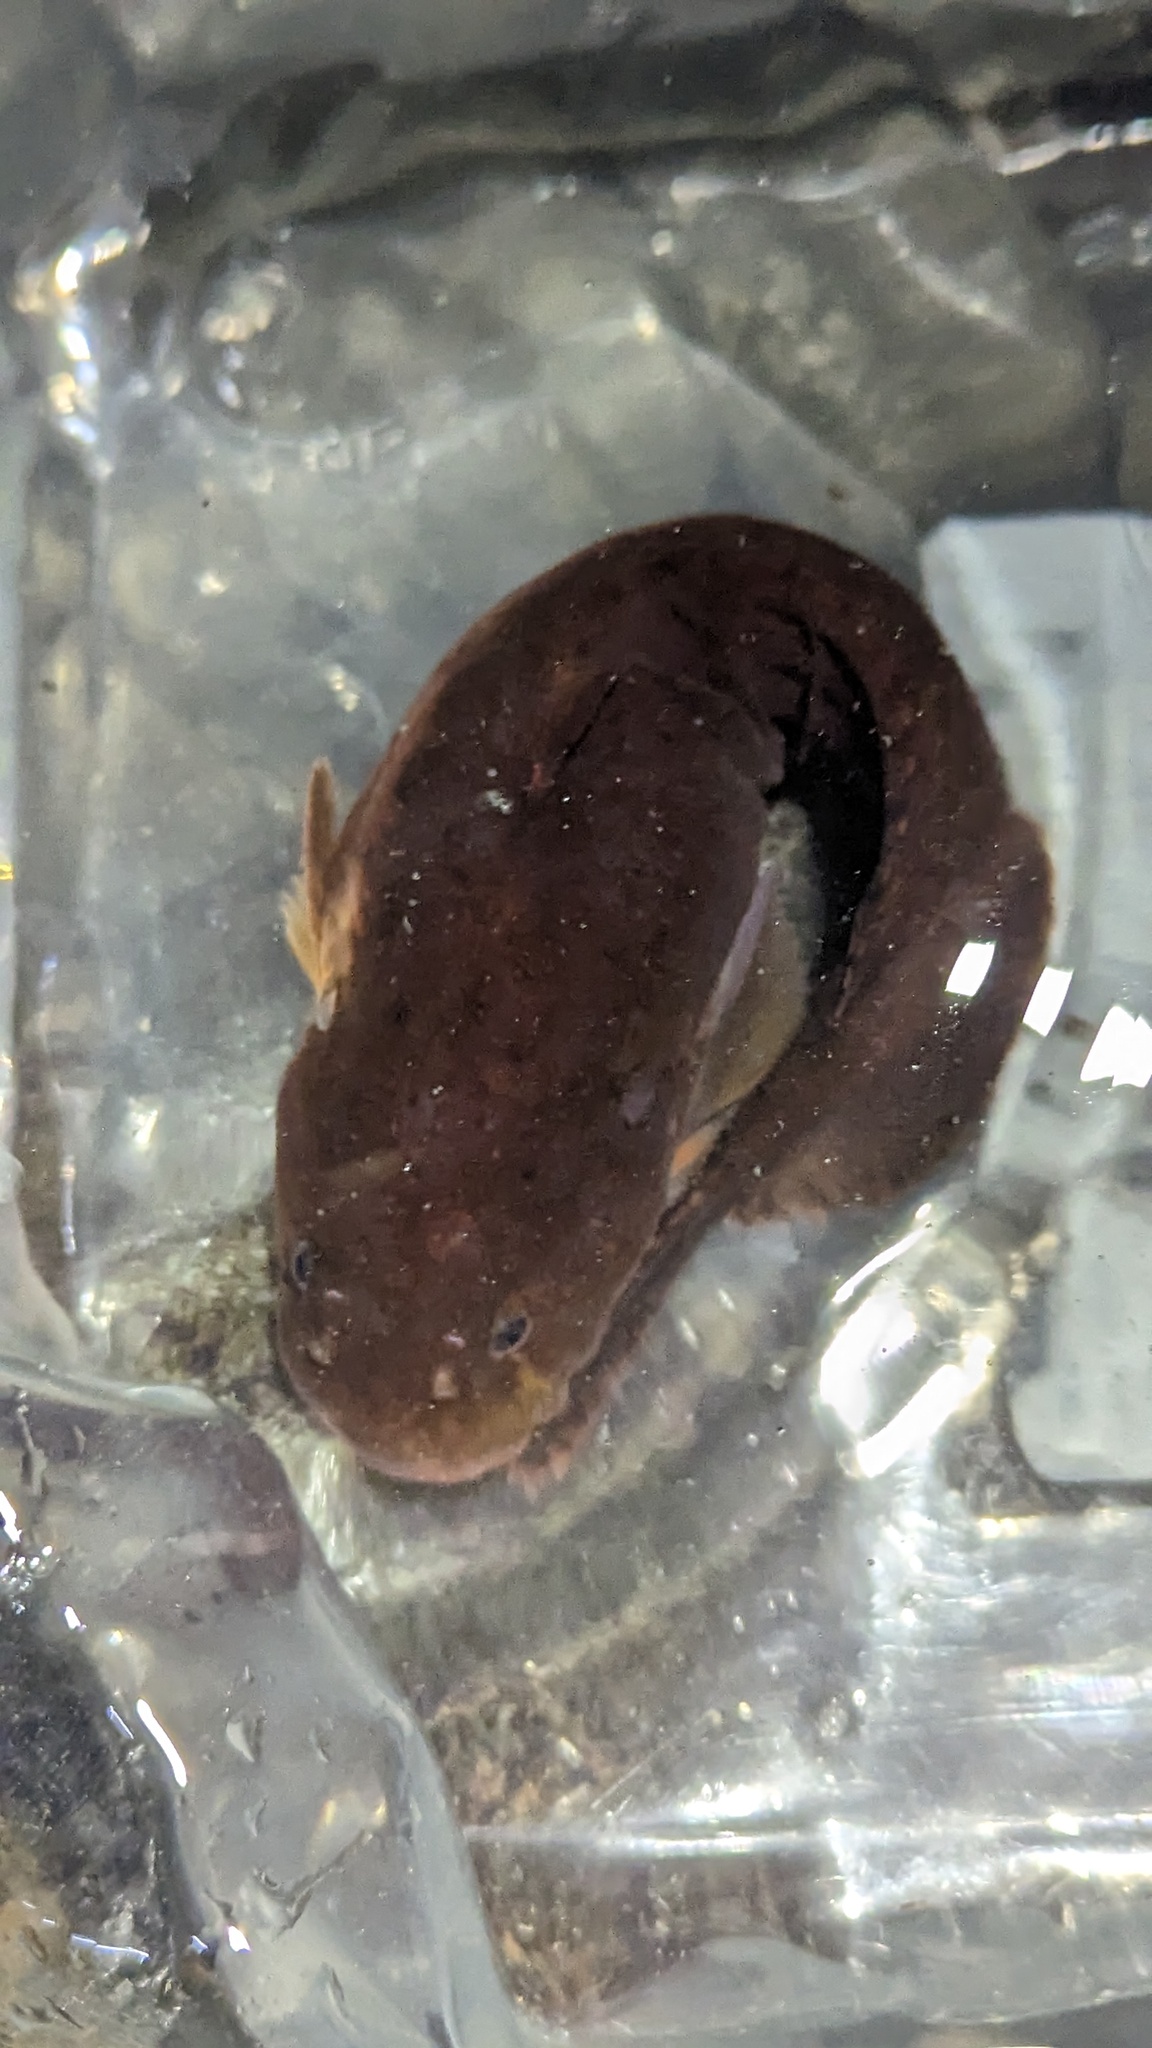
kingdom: Animalia
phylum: Chordata
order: Scorpaeniformes
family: Liparidae
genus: Liparis
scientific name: Liparis florae
